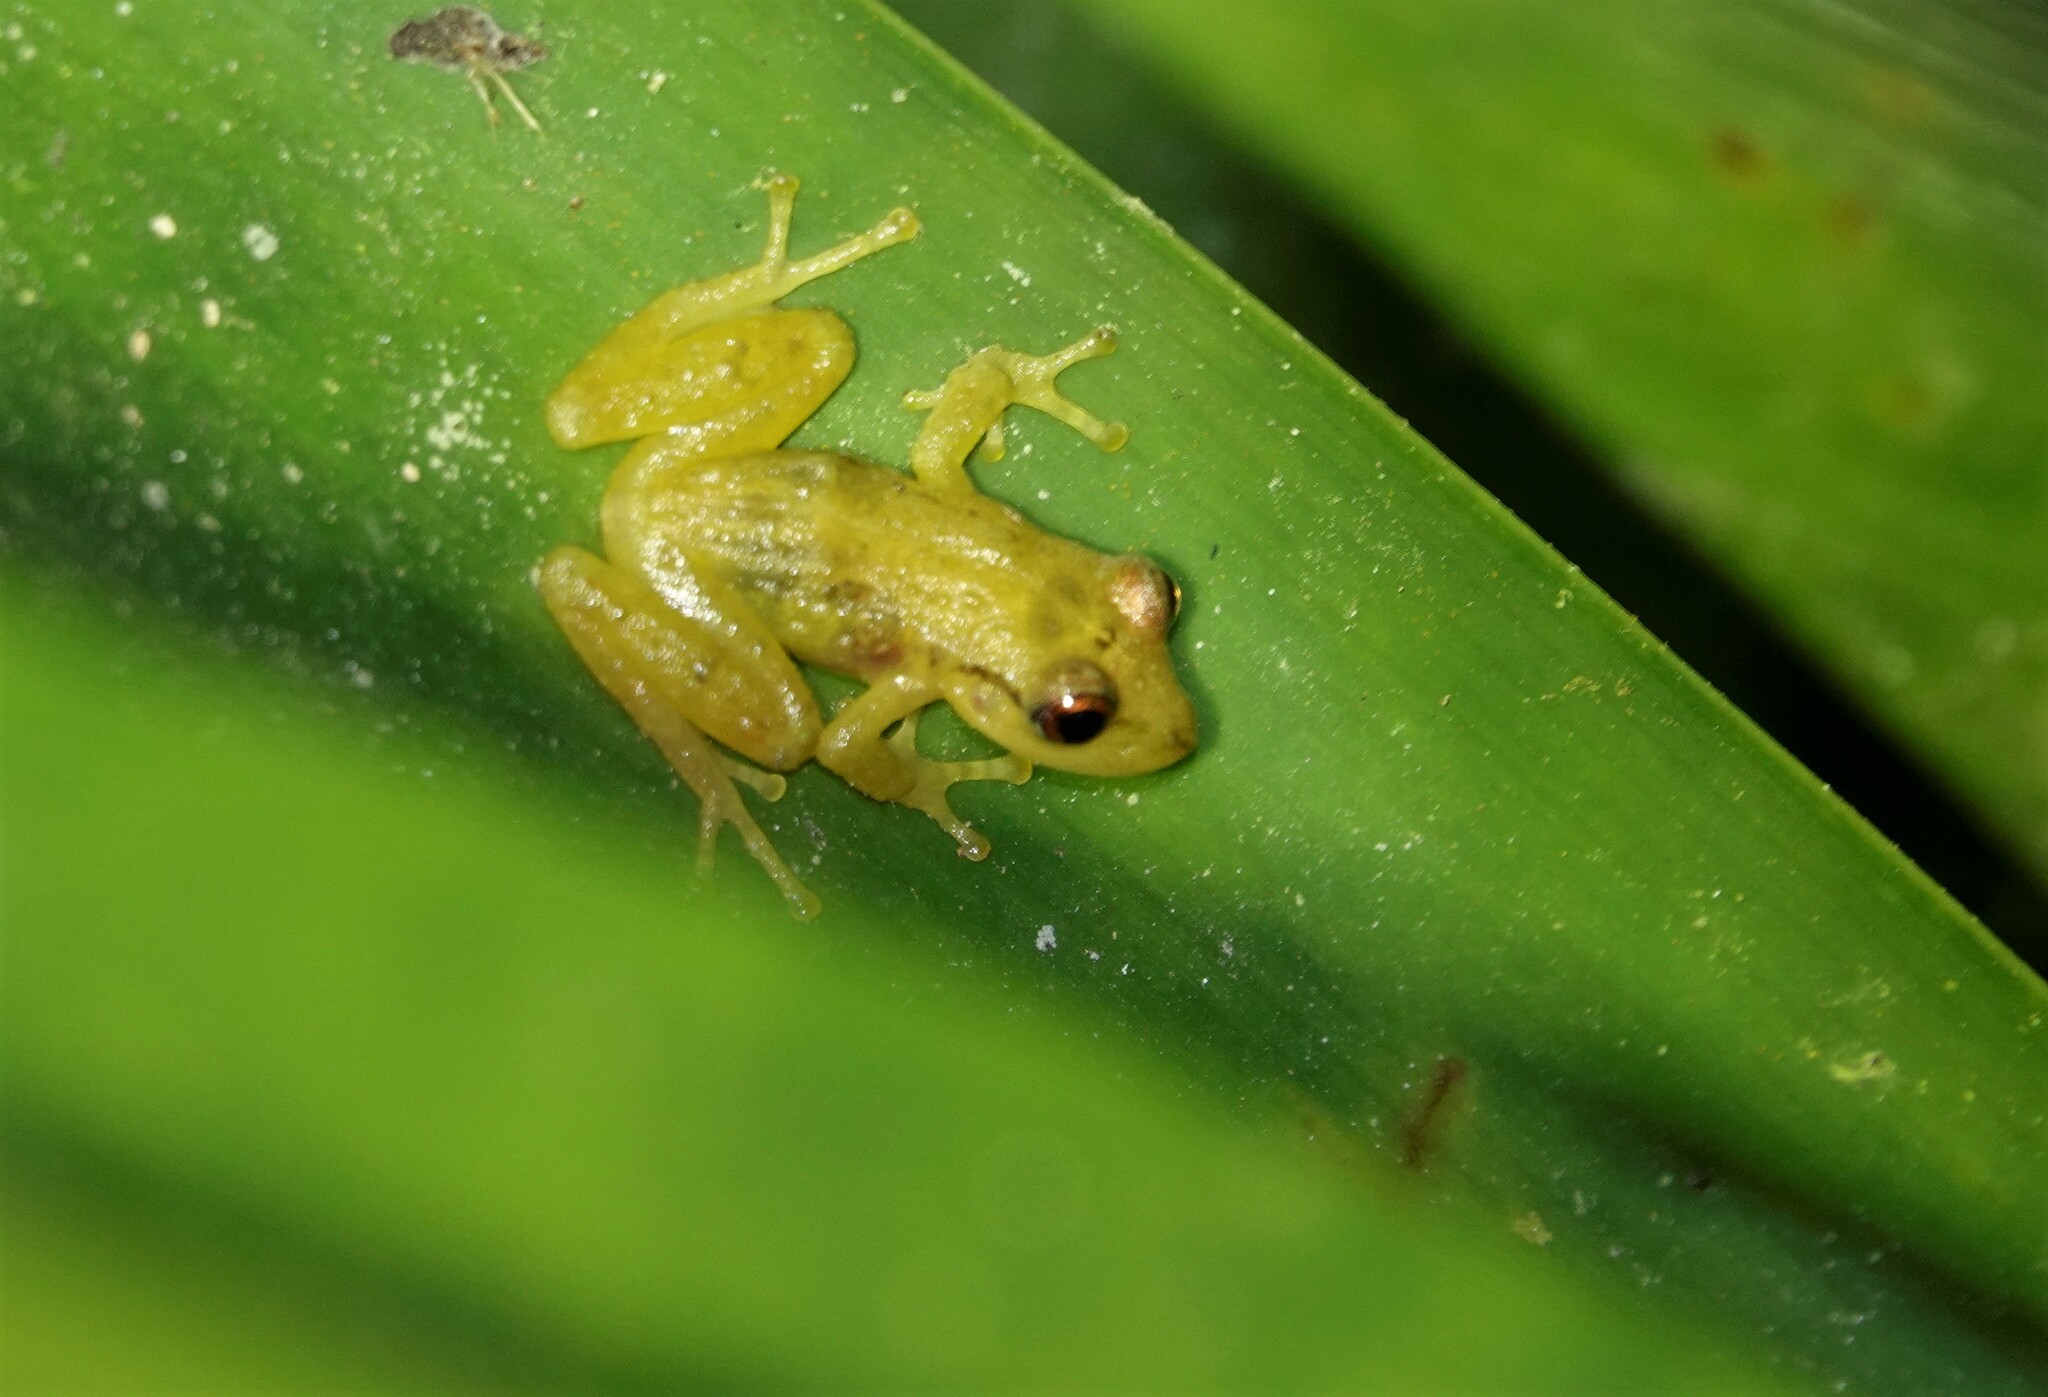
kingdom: Animalia
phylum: Chordata
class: Amphibia
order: Anura
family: Craugastoridae
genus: Tachiramantis
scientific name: Tachiramantis
